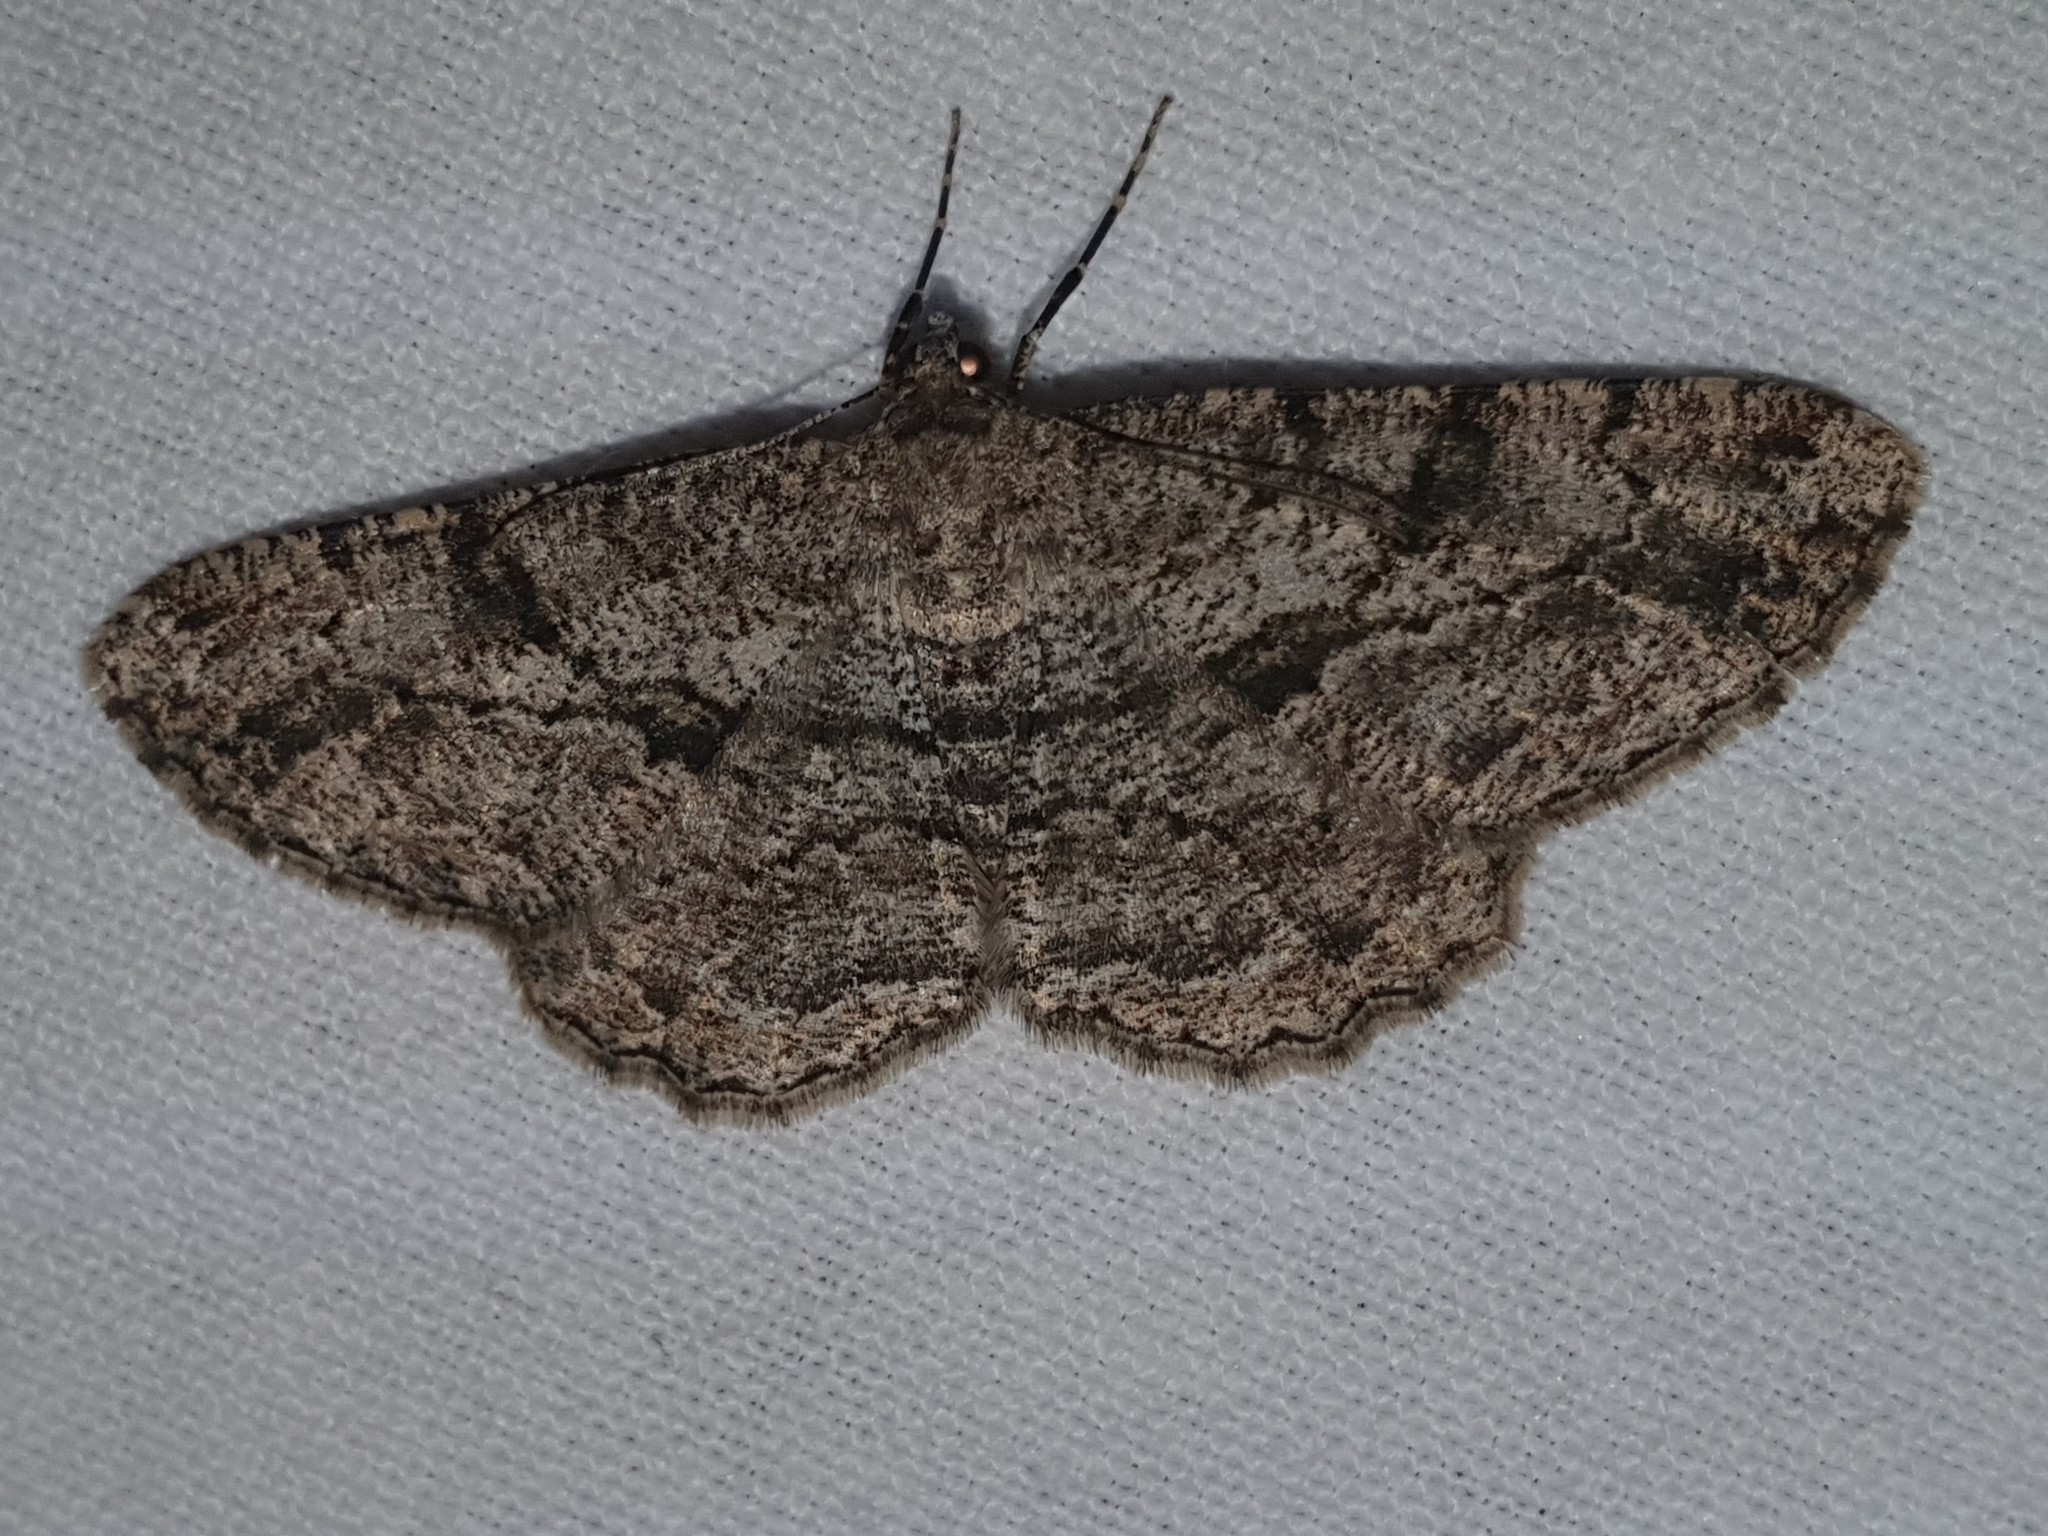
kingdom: Animalia
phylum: Arthropoda
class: Insecta
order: Lepidoptera
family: Geometridae
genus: Peribatodes
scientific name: Peribatodes rhomboidaria
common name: Willow beauty
